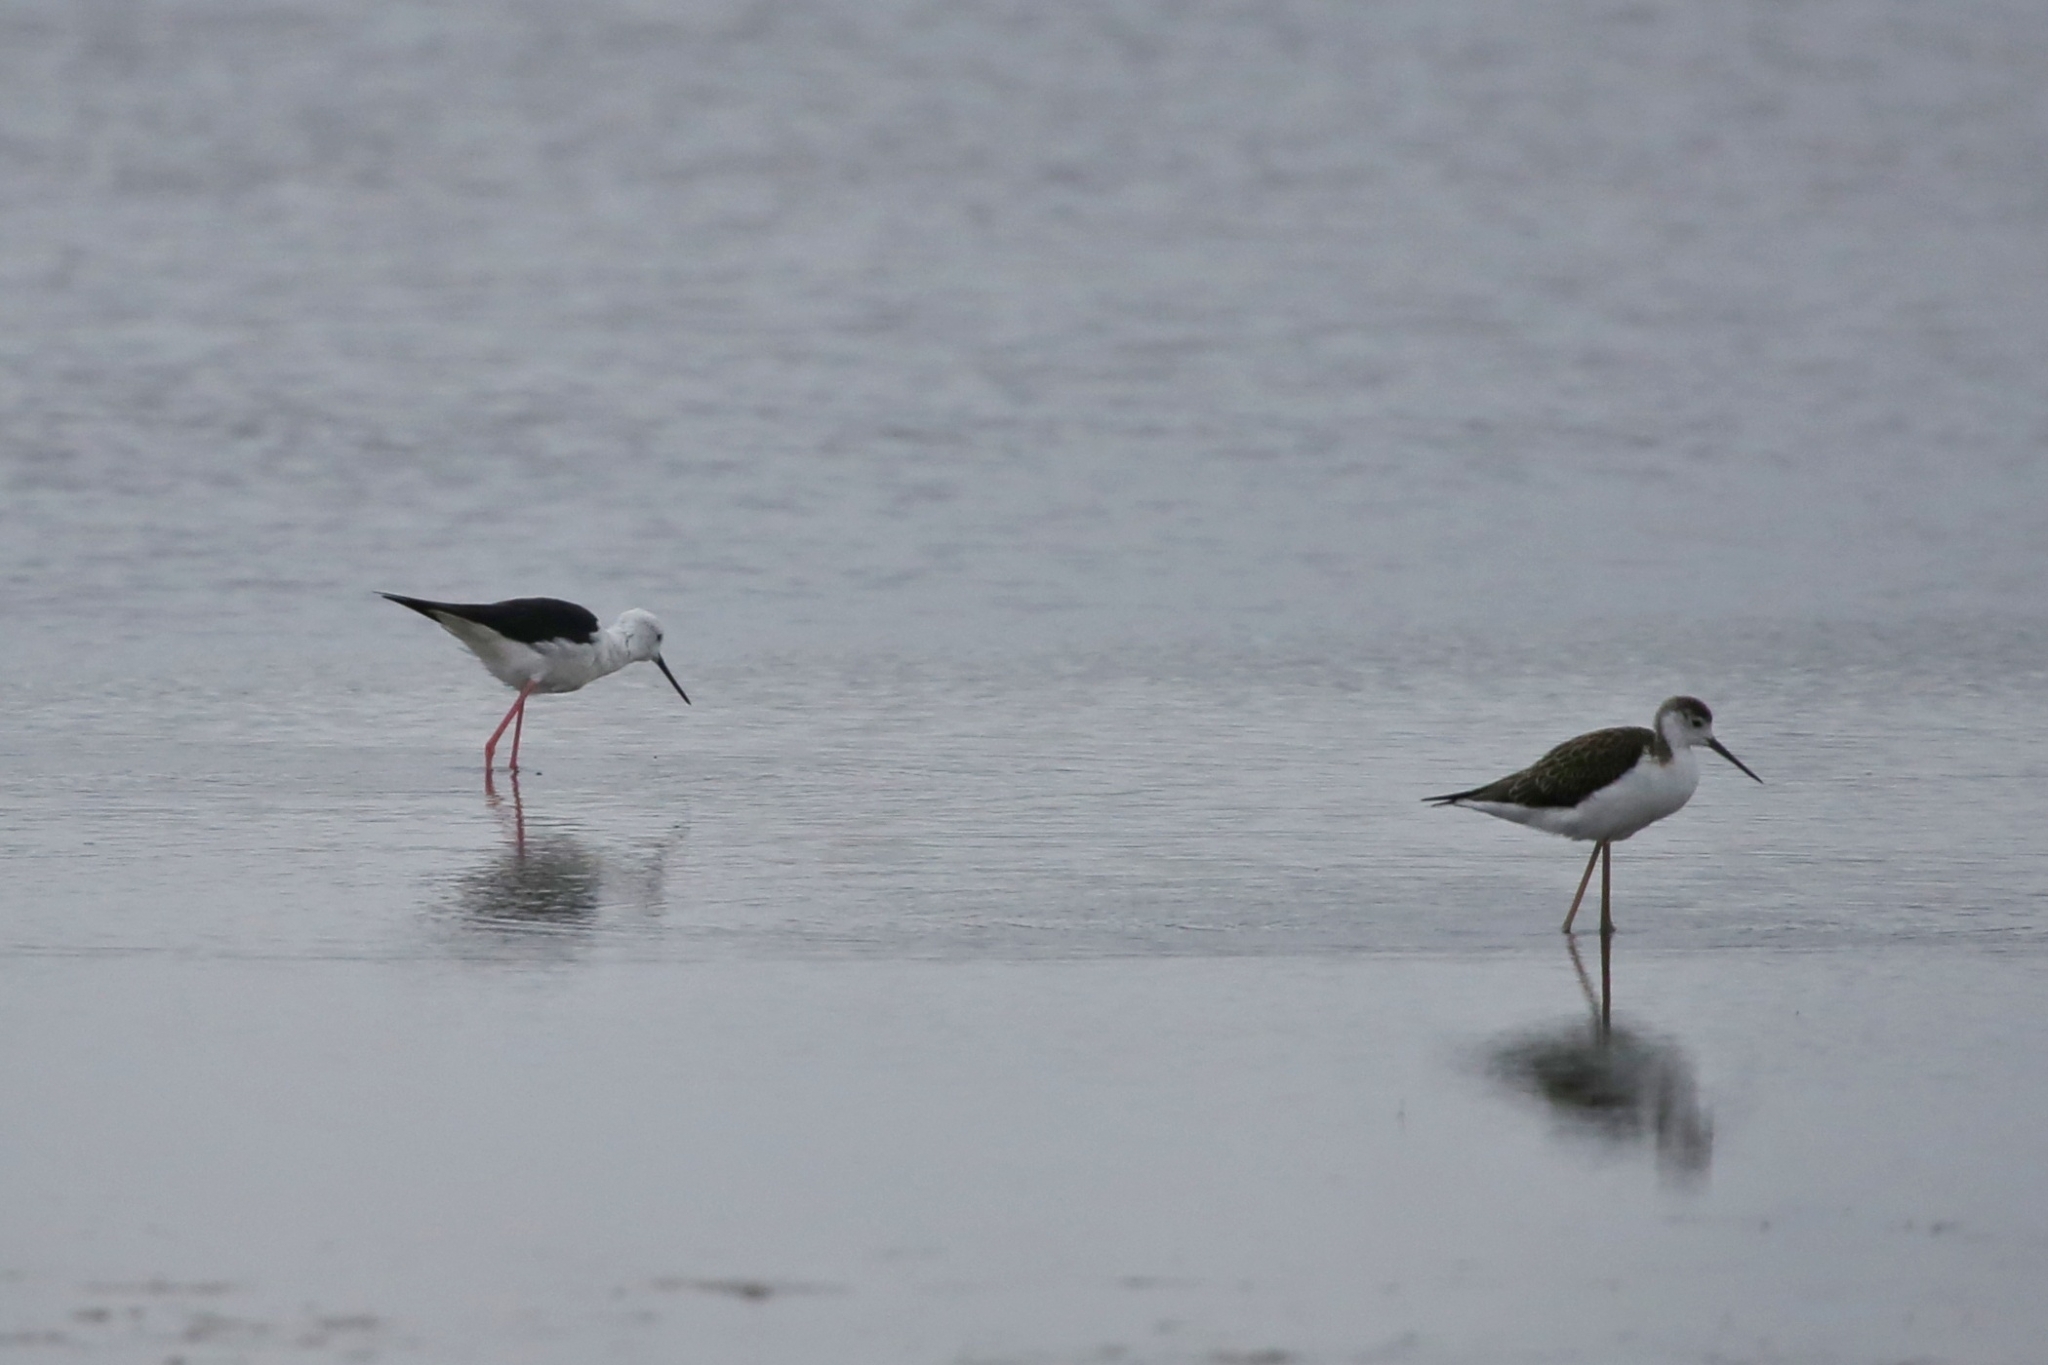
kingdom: Animalia
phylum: Chordata
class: Aves
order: Charadriiformes
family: Recurvirostridae
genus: Himantopus
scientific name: Himantopus himantopus
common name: Black-winged stilt
